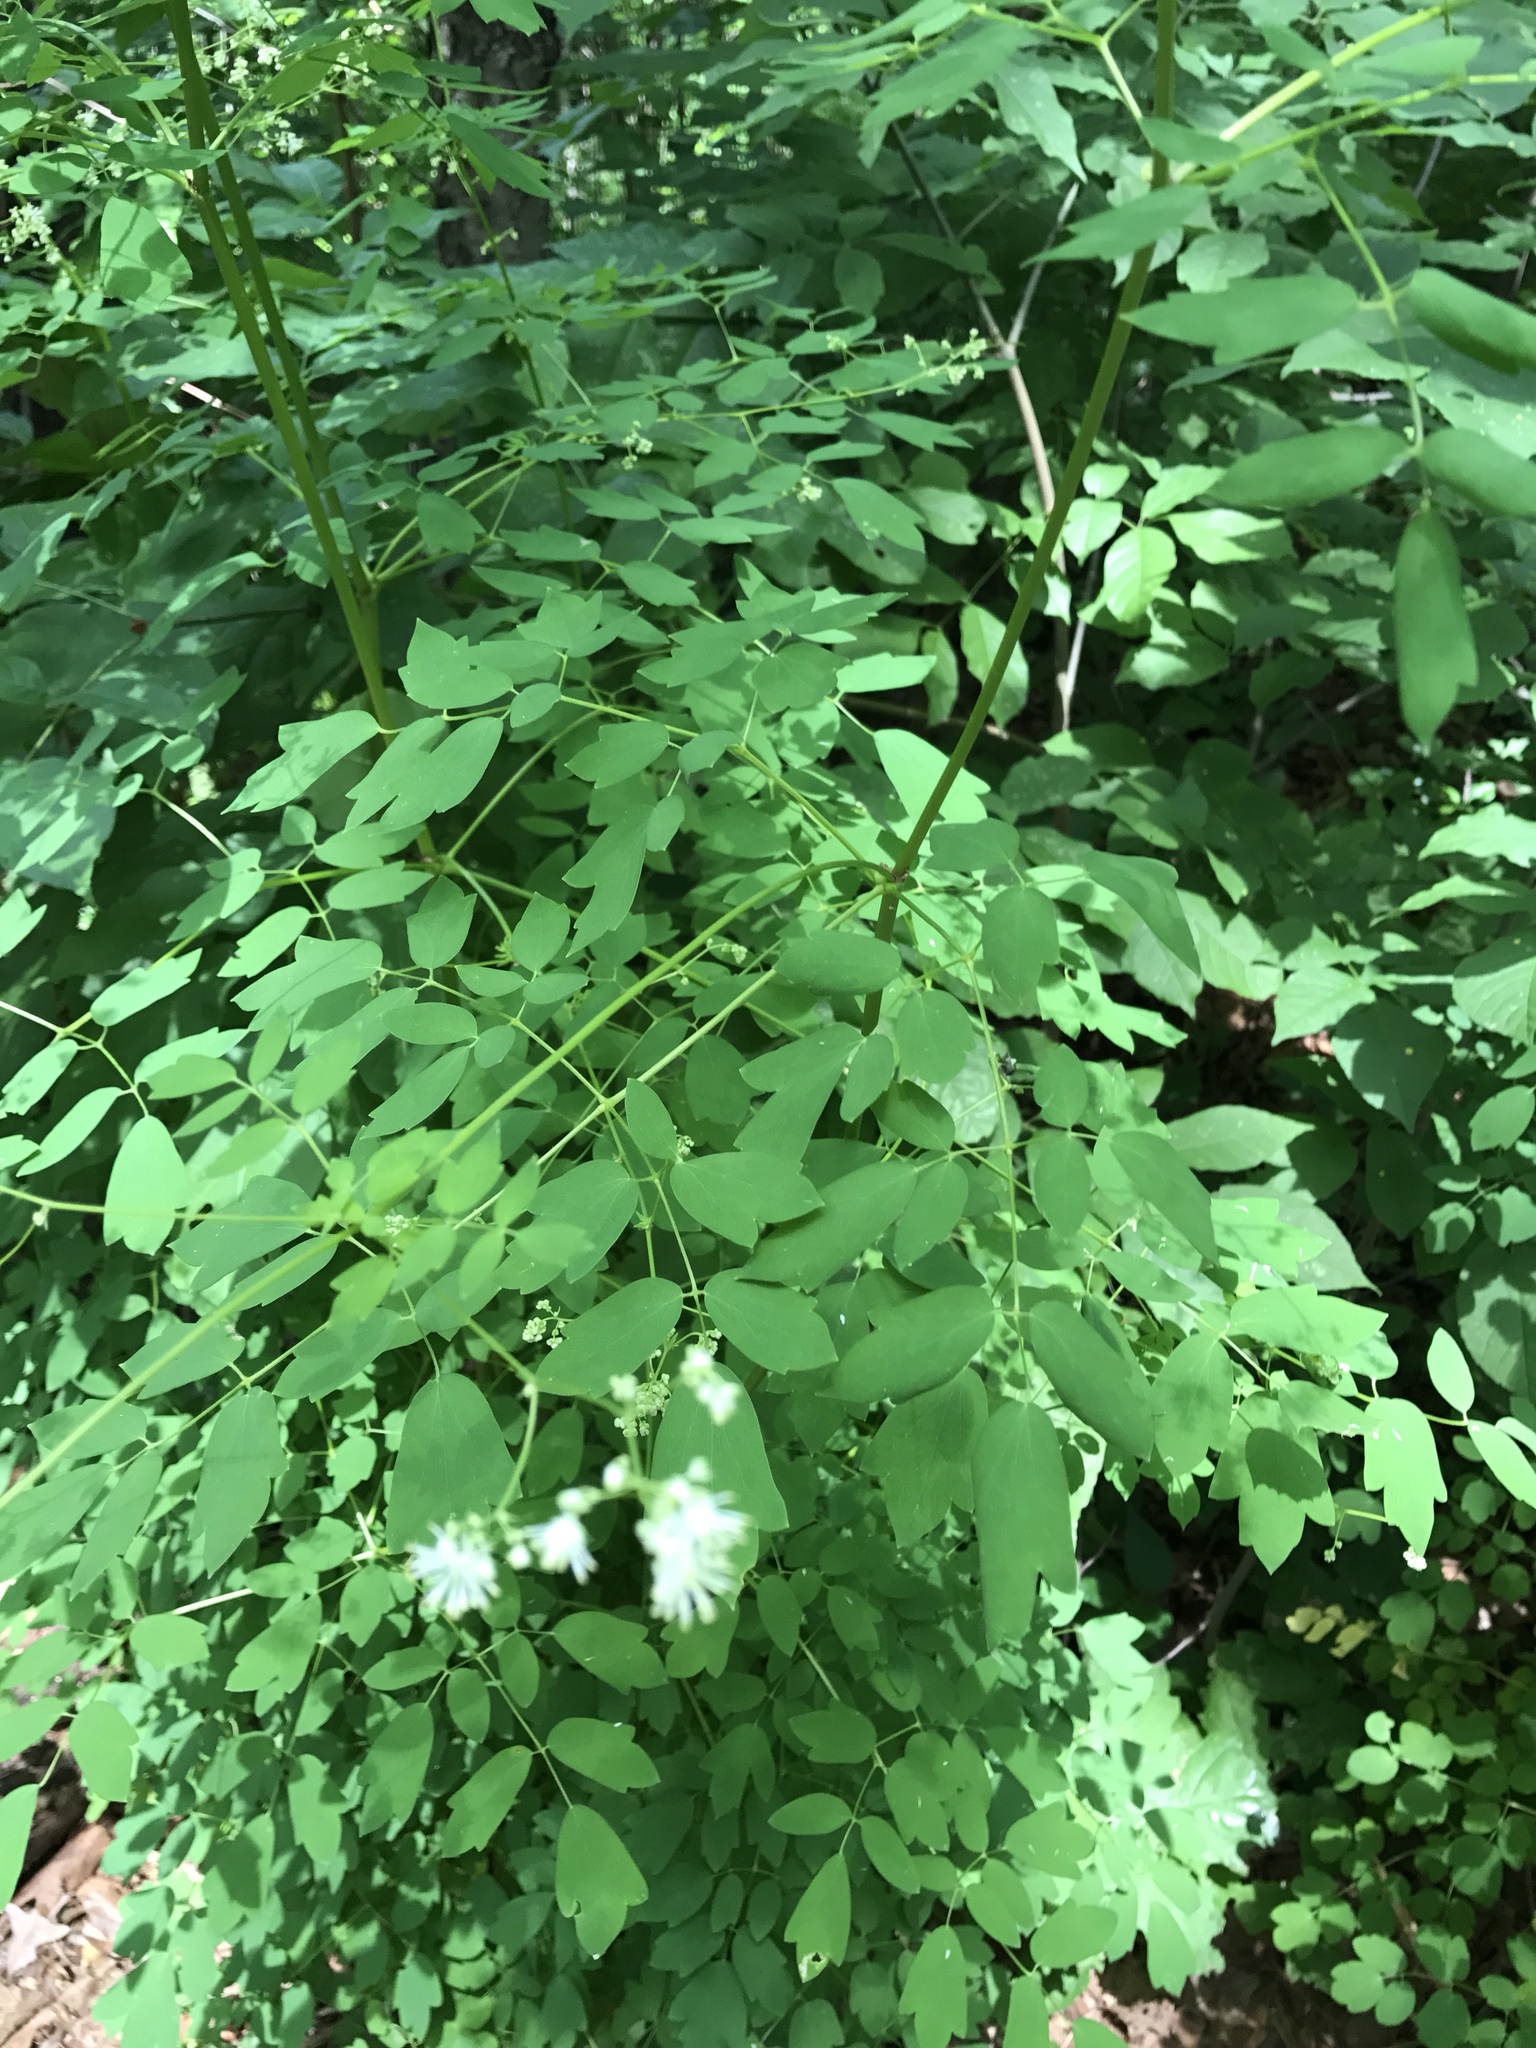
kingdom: Plantae
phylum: Tracheophyta
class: Magnoliopsida
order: Ranunculales
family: Ranunculaceae
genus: Thalictrum
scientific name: Thalictrum pubescens
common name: King-of-the-meadow
